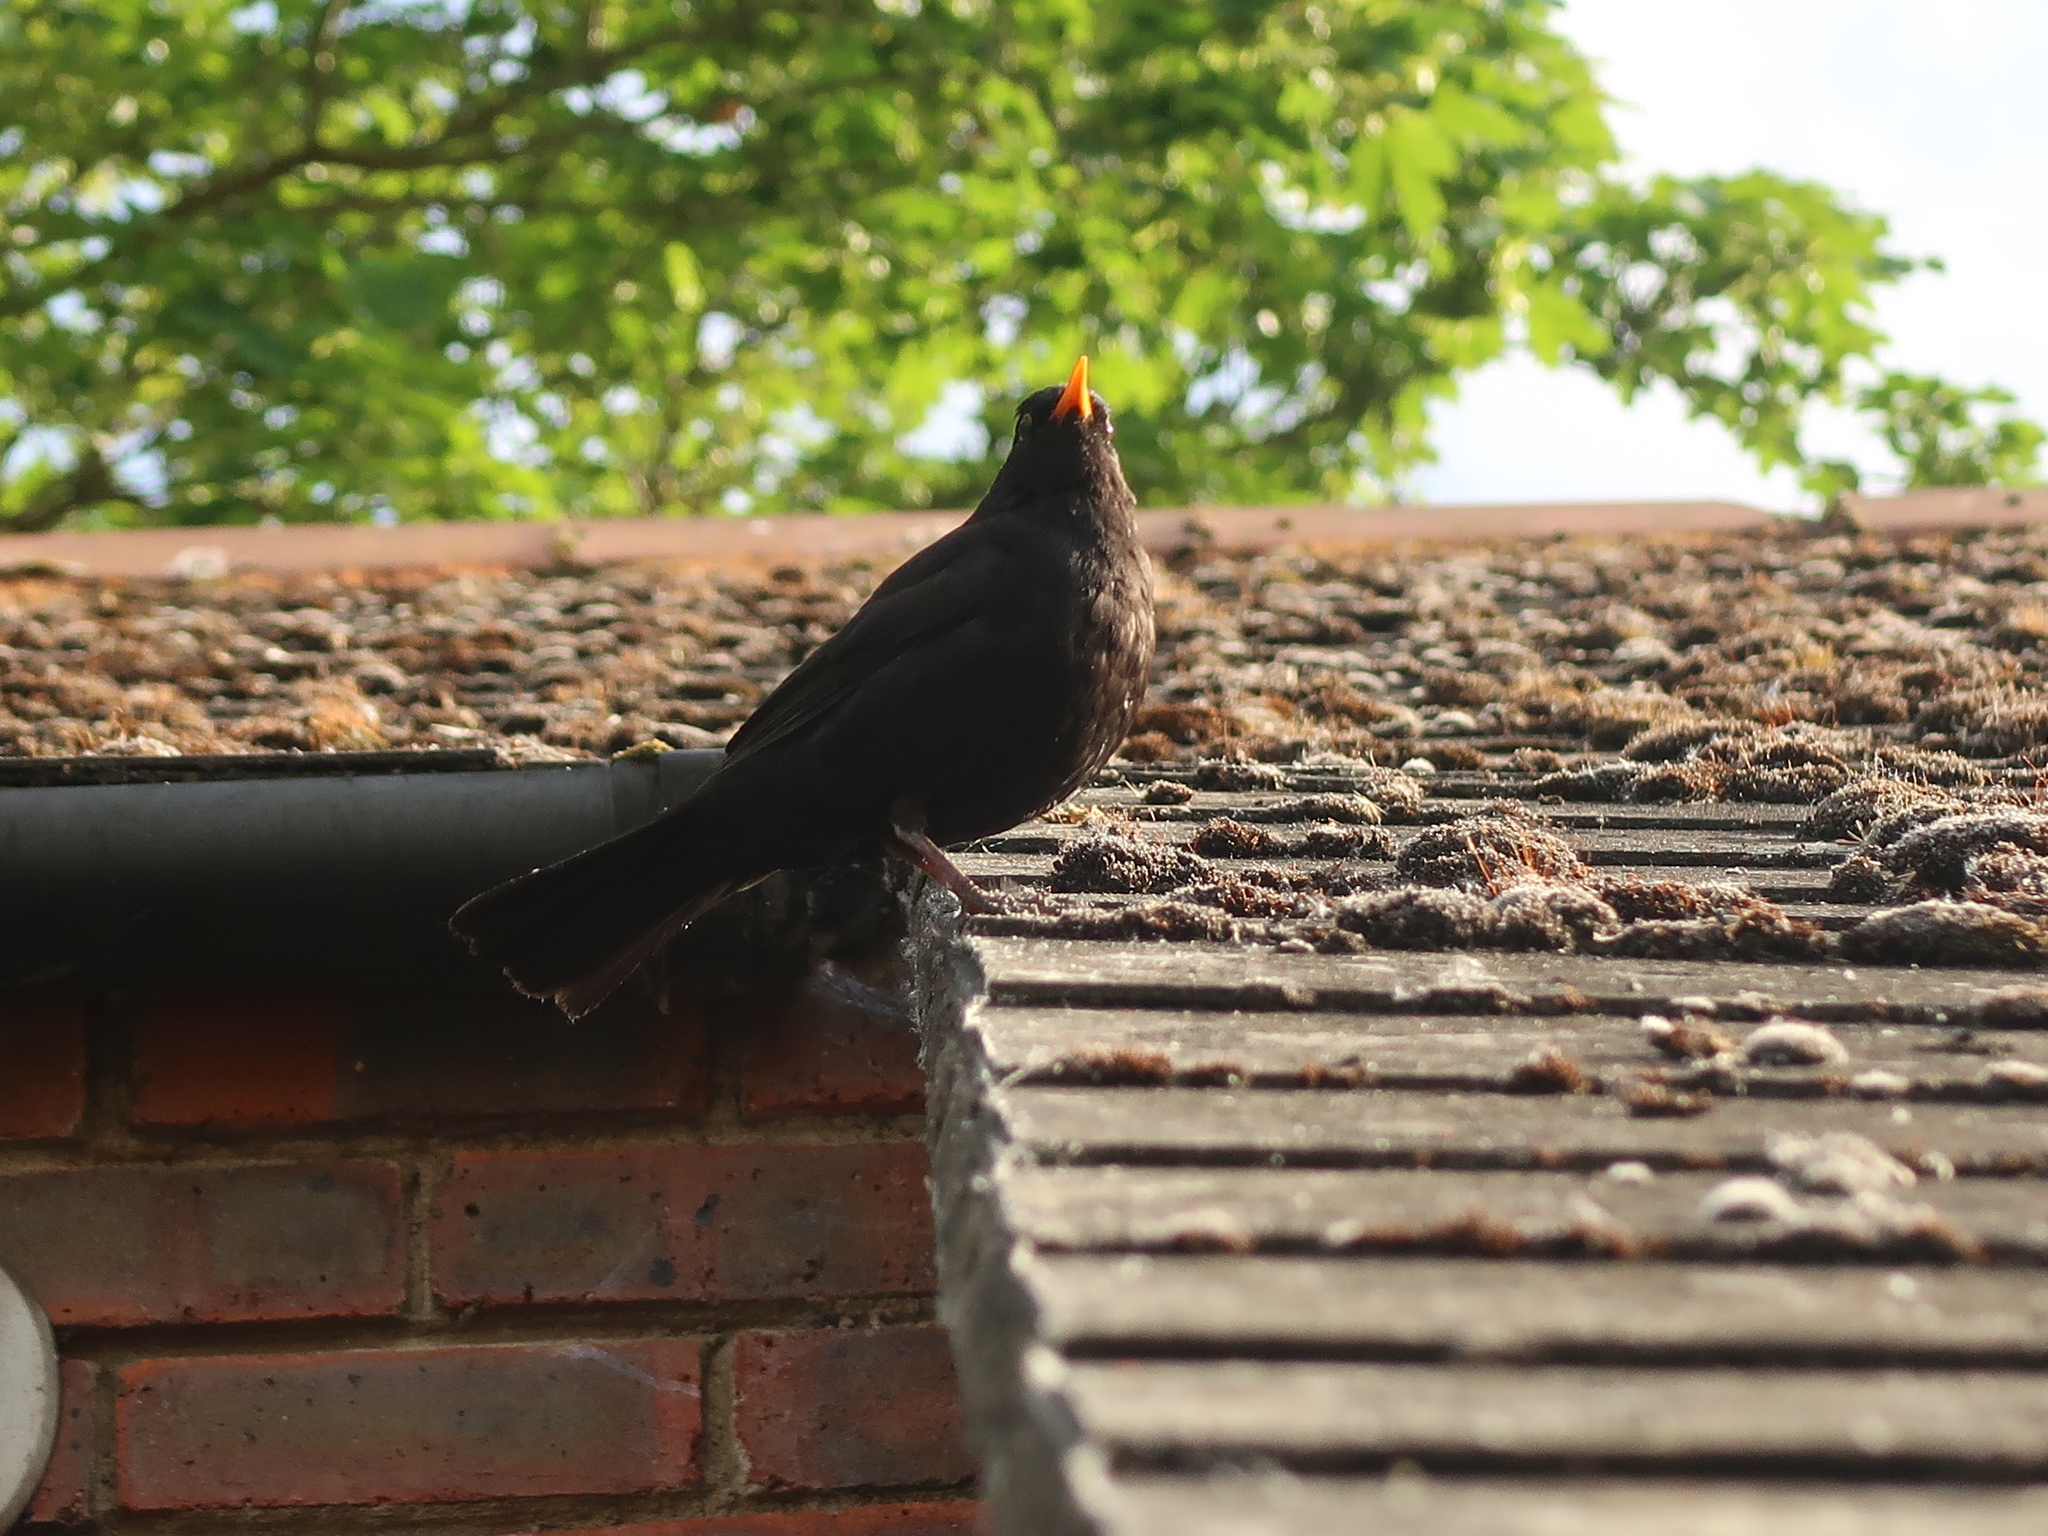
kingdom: Animalia
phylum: Chordata
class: Aves
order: Passeriformes
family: Turdidae
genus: Turdus
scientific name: Turdus merula
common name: Common blackbird
